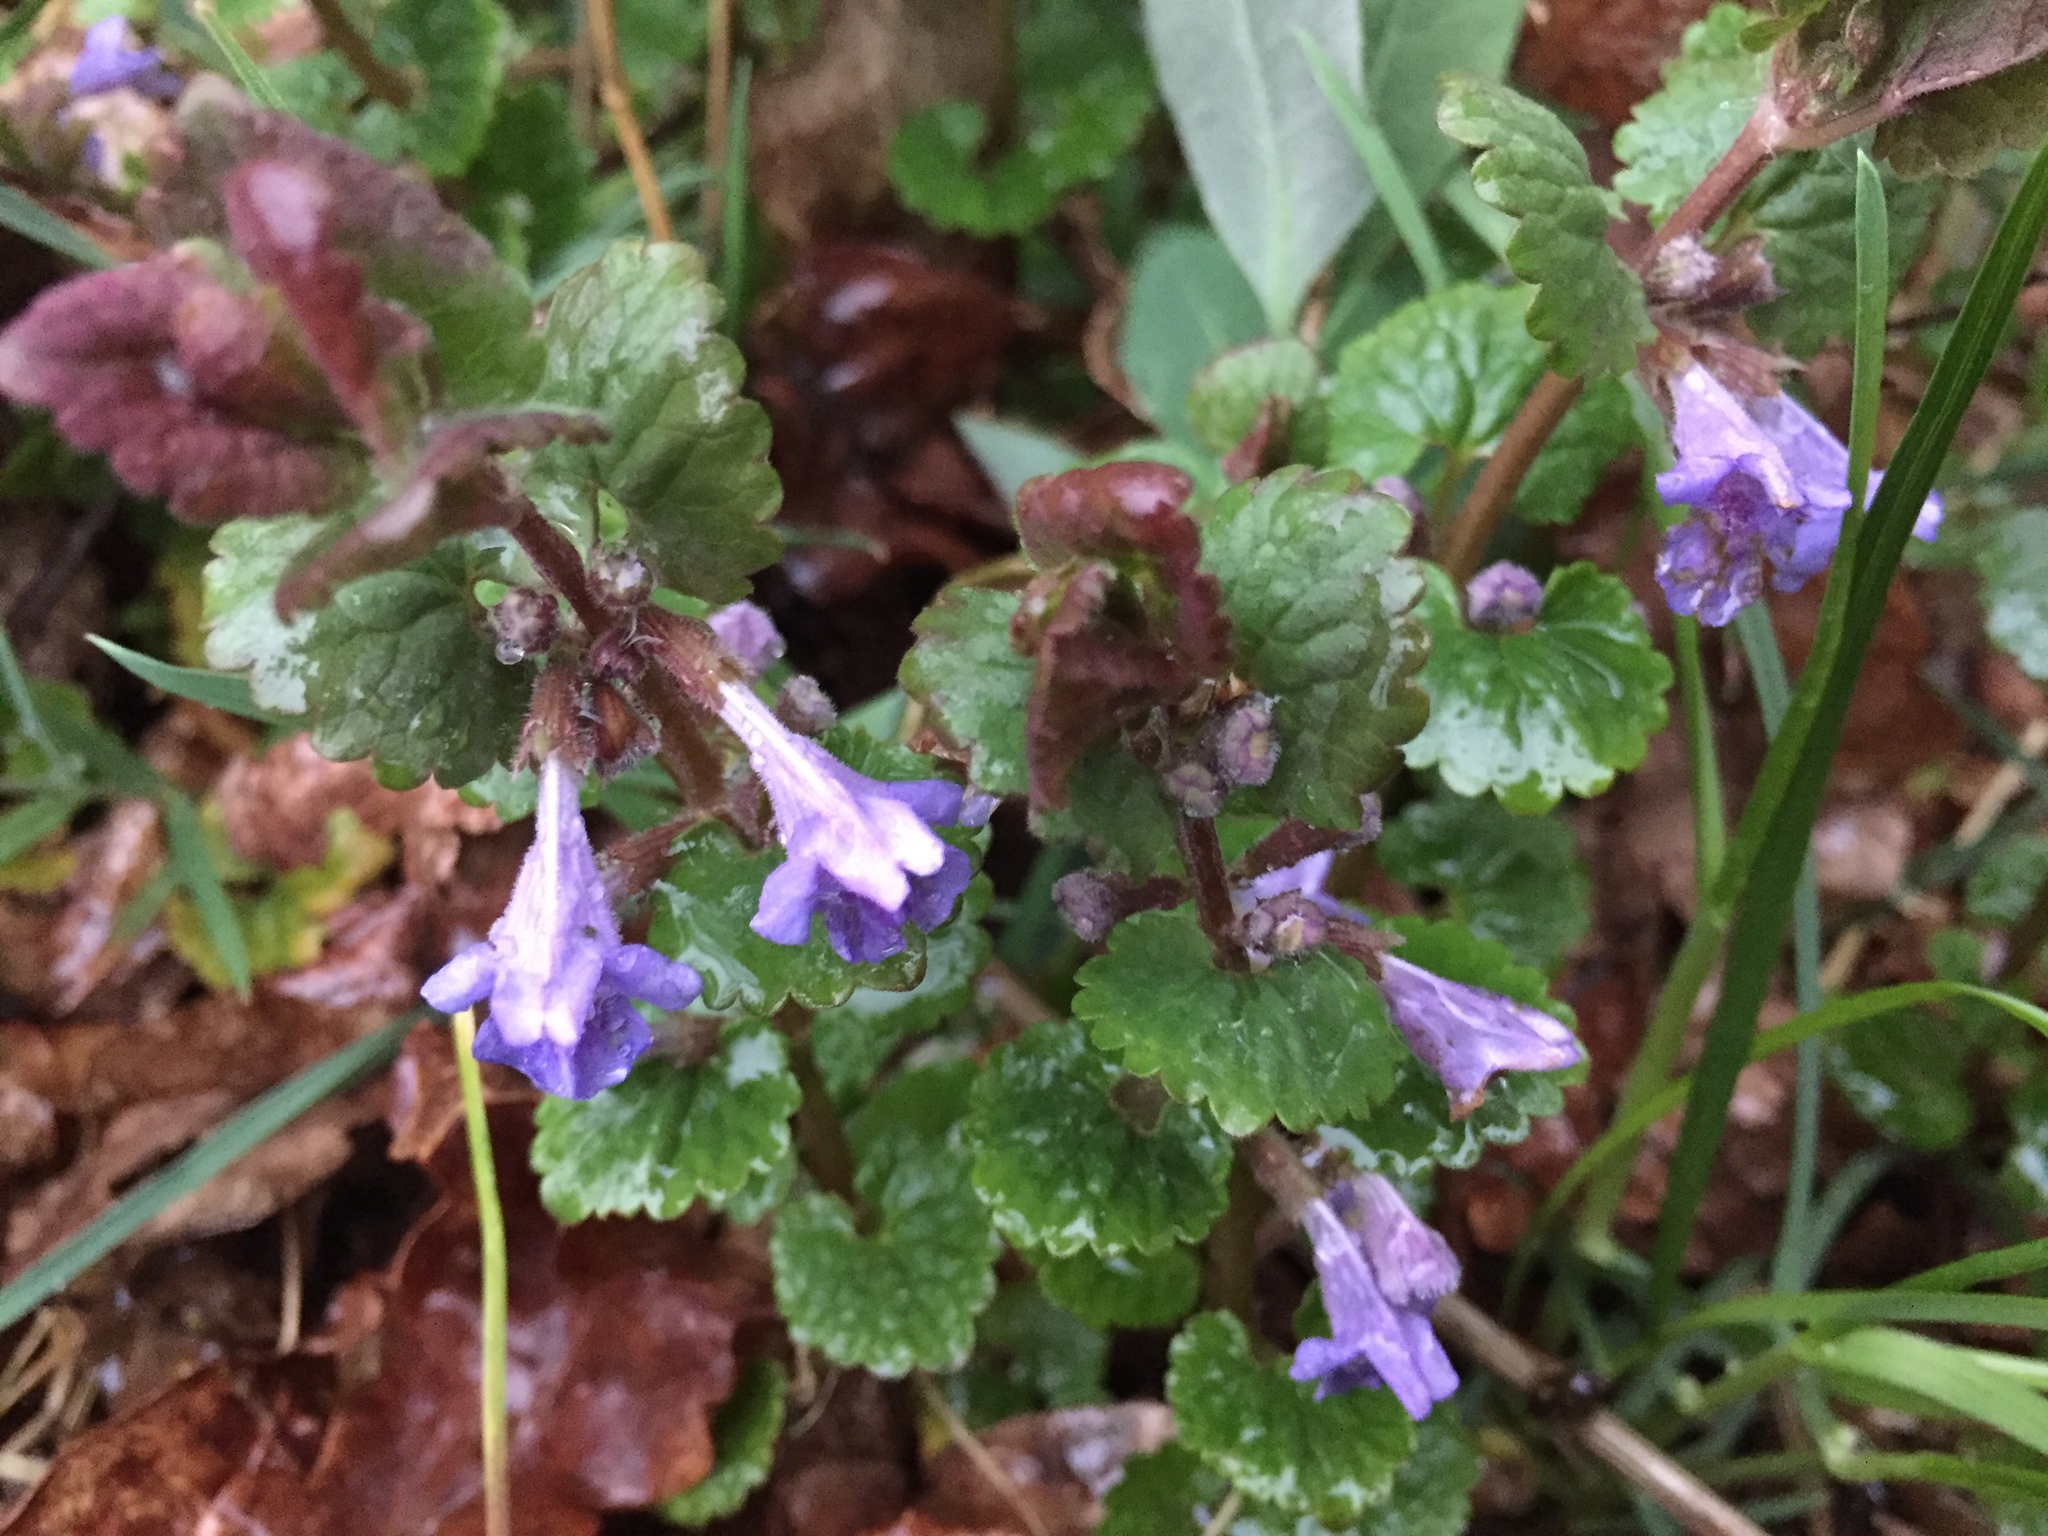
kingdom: Plantae
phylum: Tracheophyta
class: Magnoliopsida
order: Lamiales
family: Lamiaceae
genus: Glechoma
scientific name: Glechoma hederacea
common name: Ground ivy
